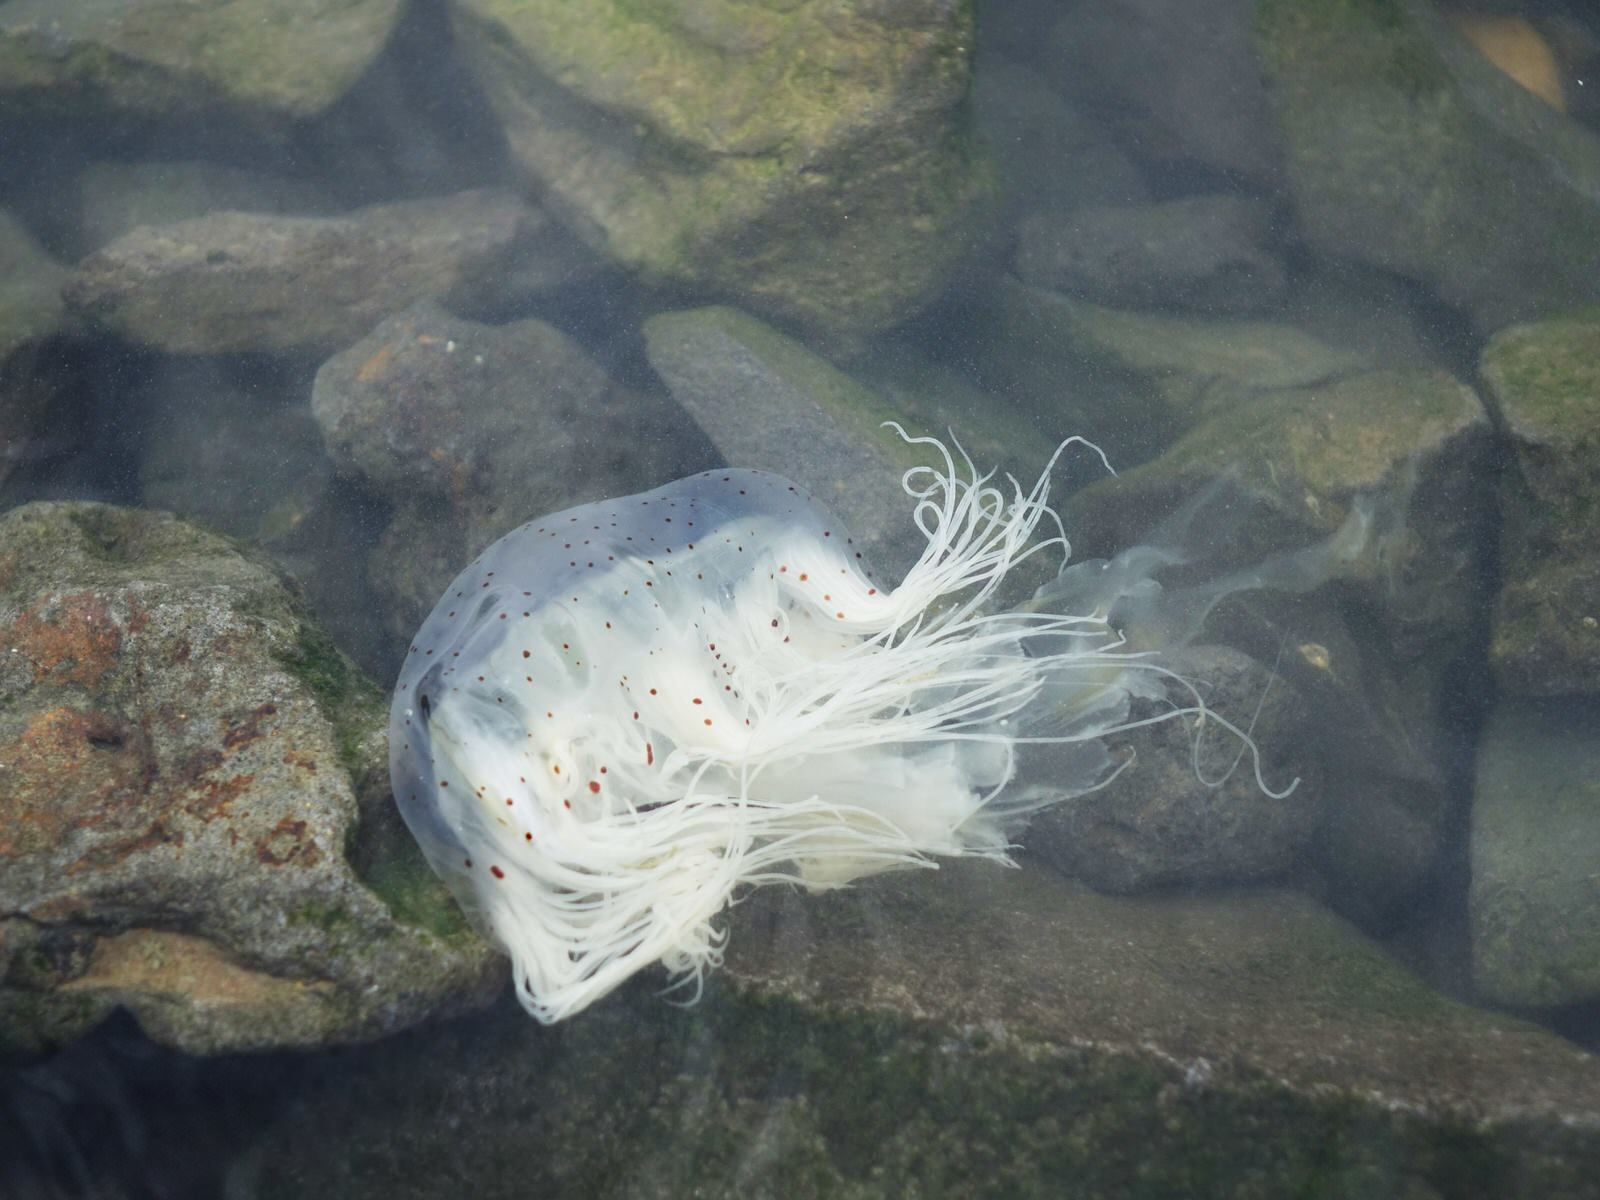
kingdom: Animalia
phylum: Cnidaria
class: Scyphozoa
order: Semaeostomeae
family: Cyaneidae
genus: Desmonema
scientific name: Desmonema gaudichaudi
